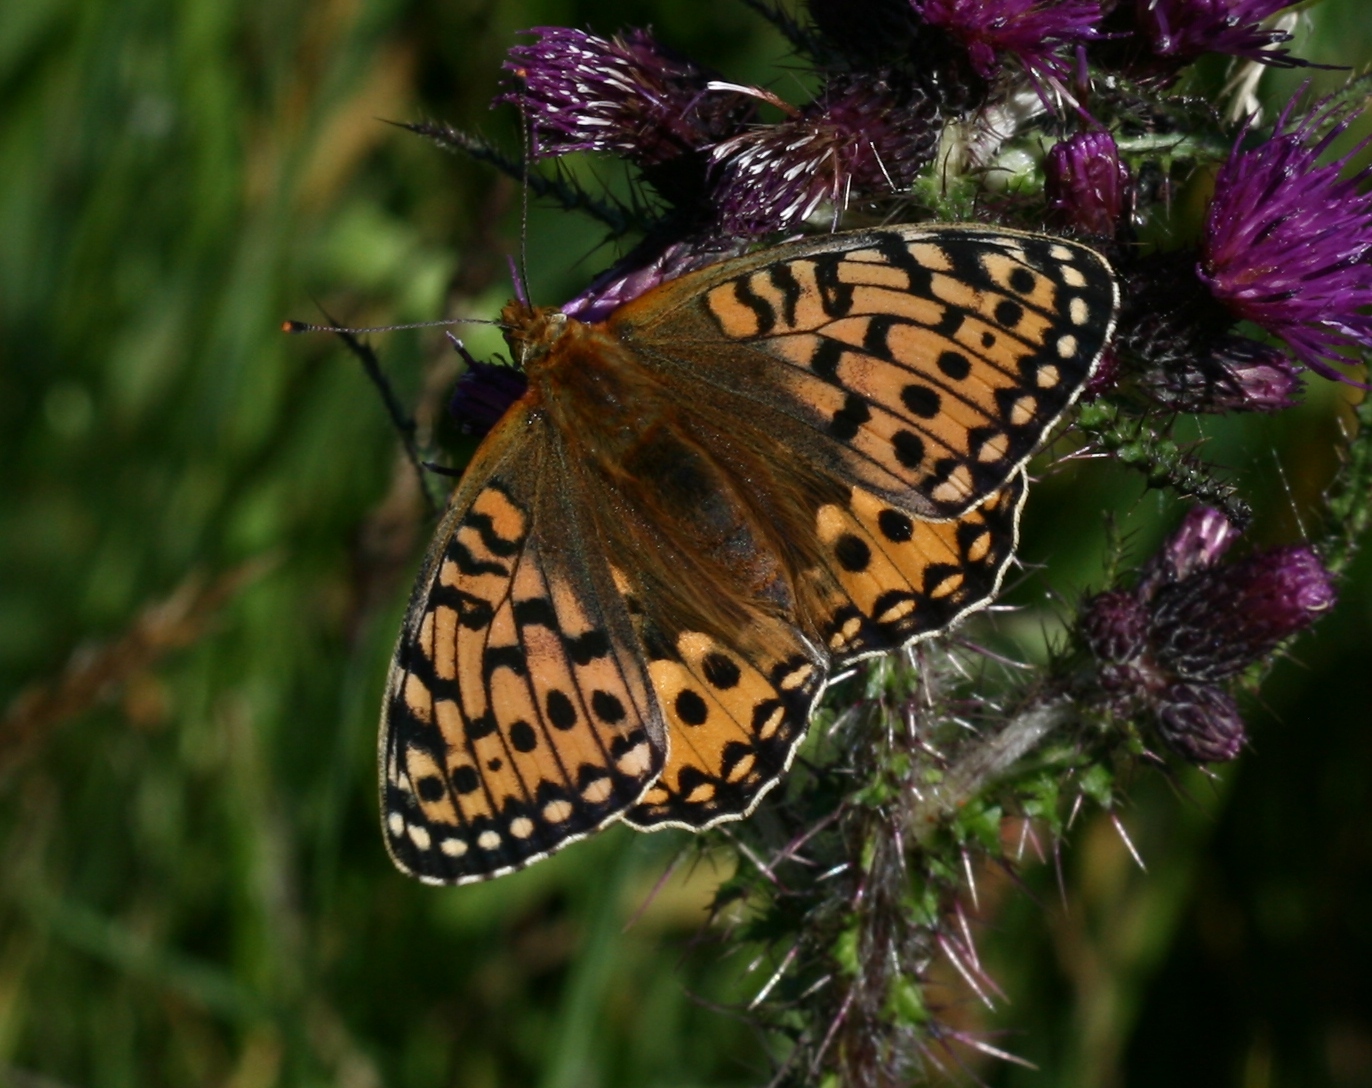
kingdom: Animalia
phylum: Arthropoda
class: Insecta
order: Lepidoptera
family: Nymphalidae
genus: Speyeria
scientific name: Speyeria aglaja
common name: Dark green fritillary
